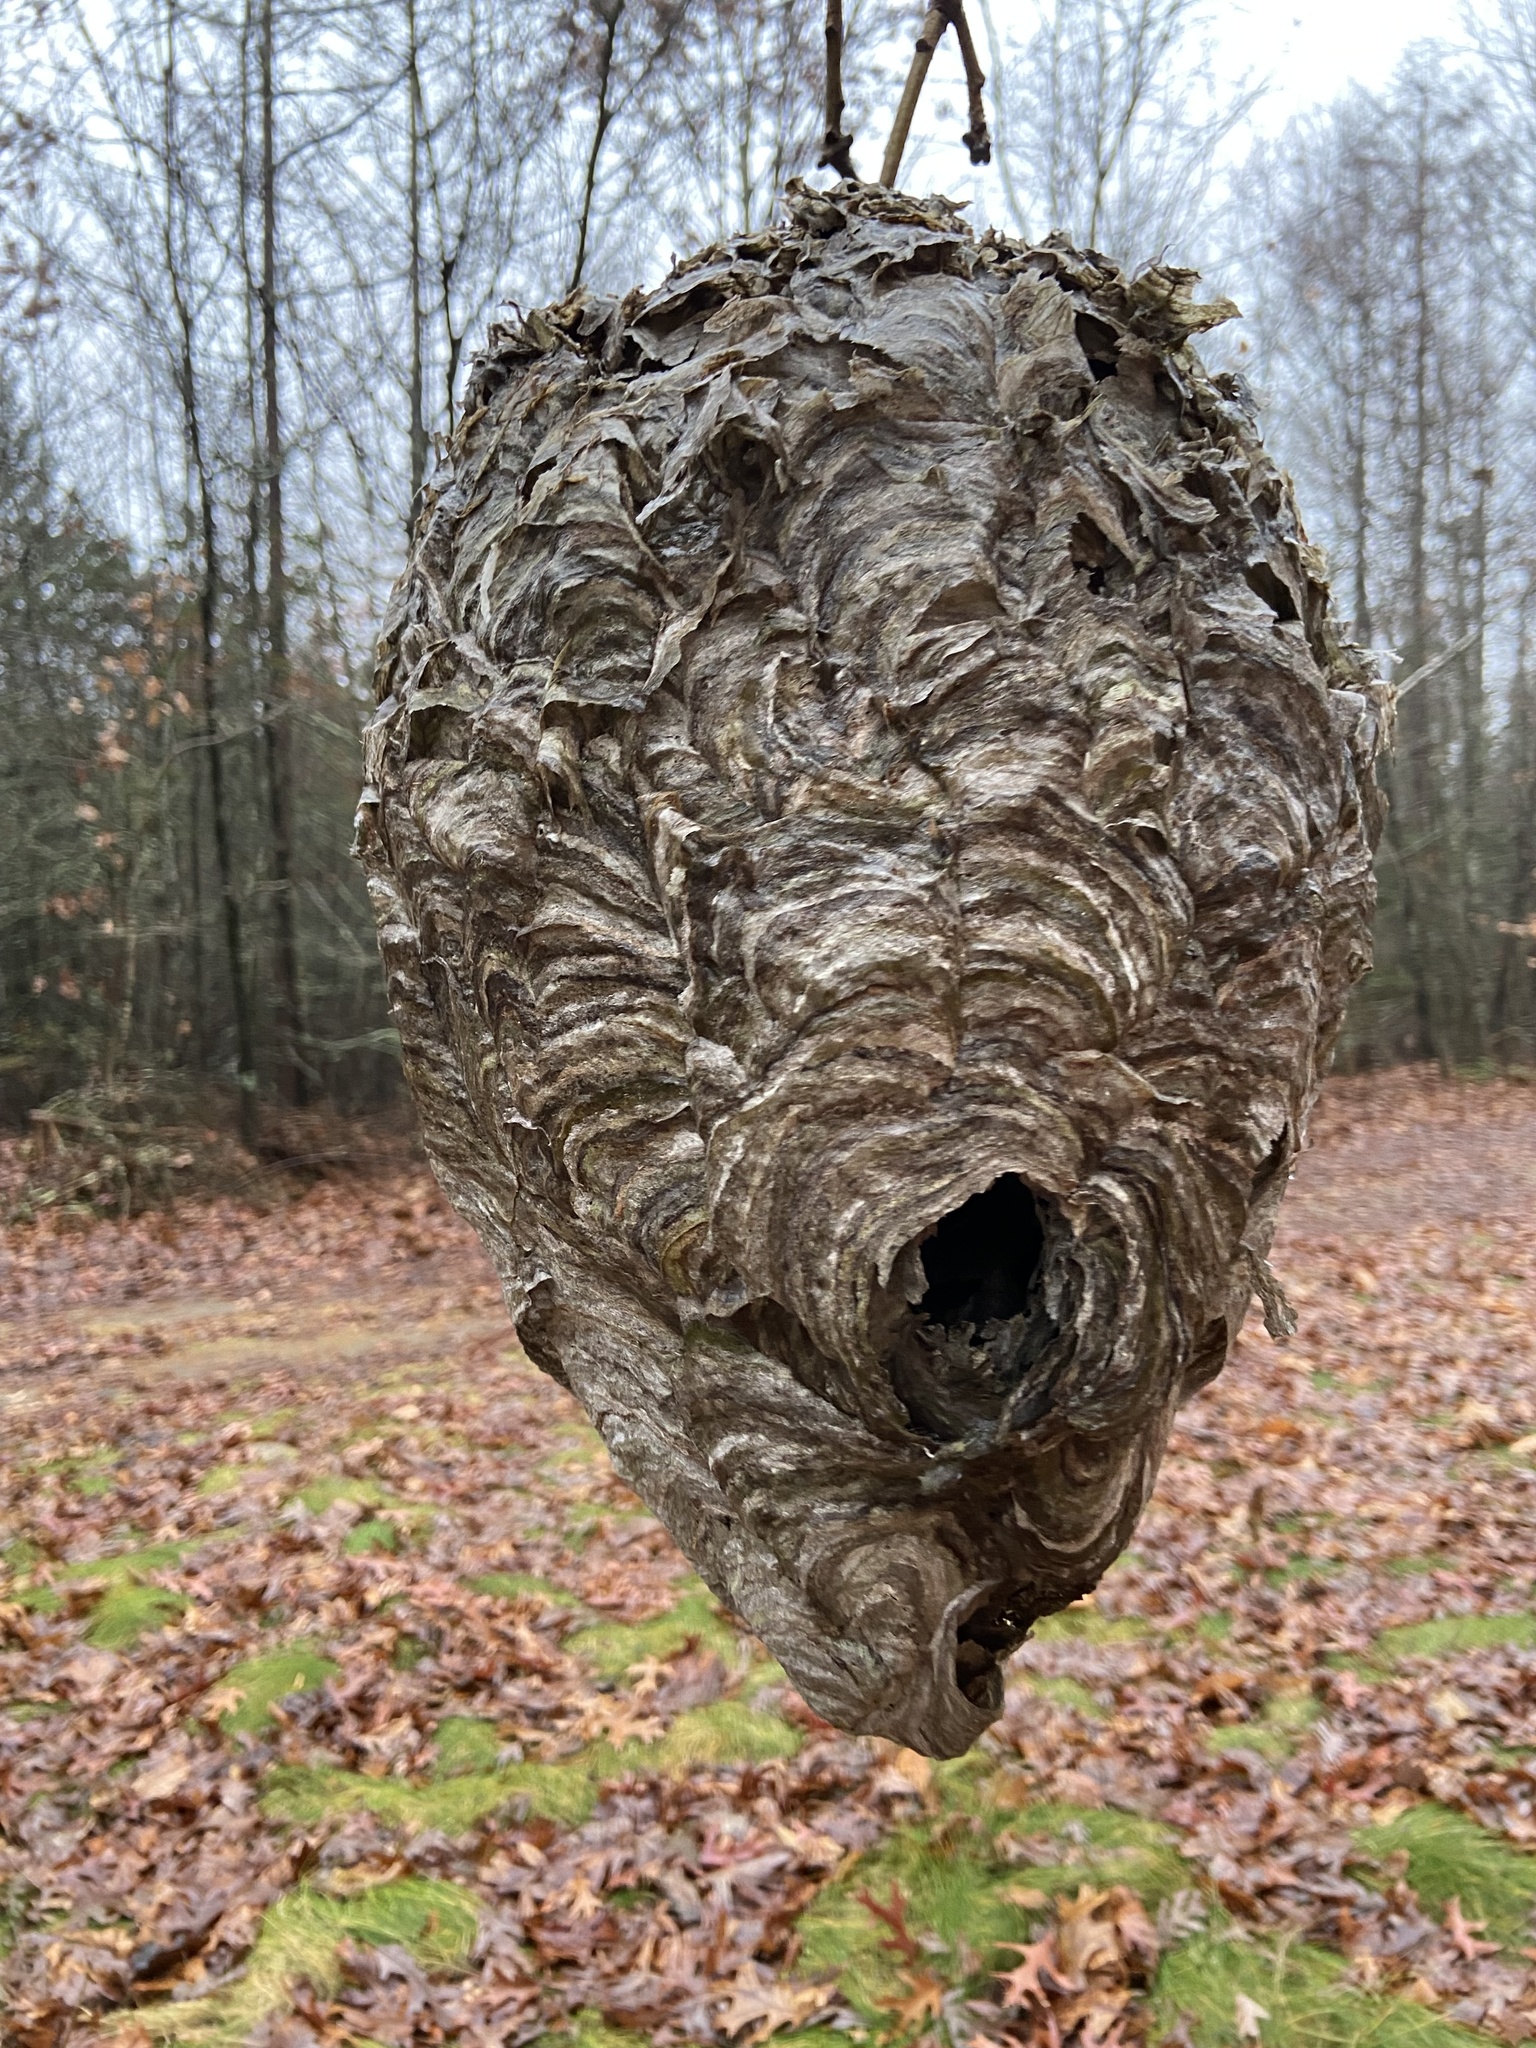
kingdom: Animalia
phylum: Arthropoda
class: Insecta
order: Hymenoptera
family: Vespidae
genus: Dolichovespula
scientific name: Dolichovespula maculata
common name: Bald-faced hornet
